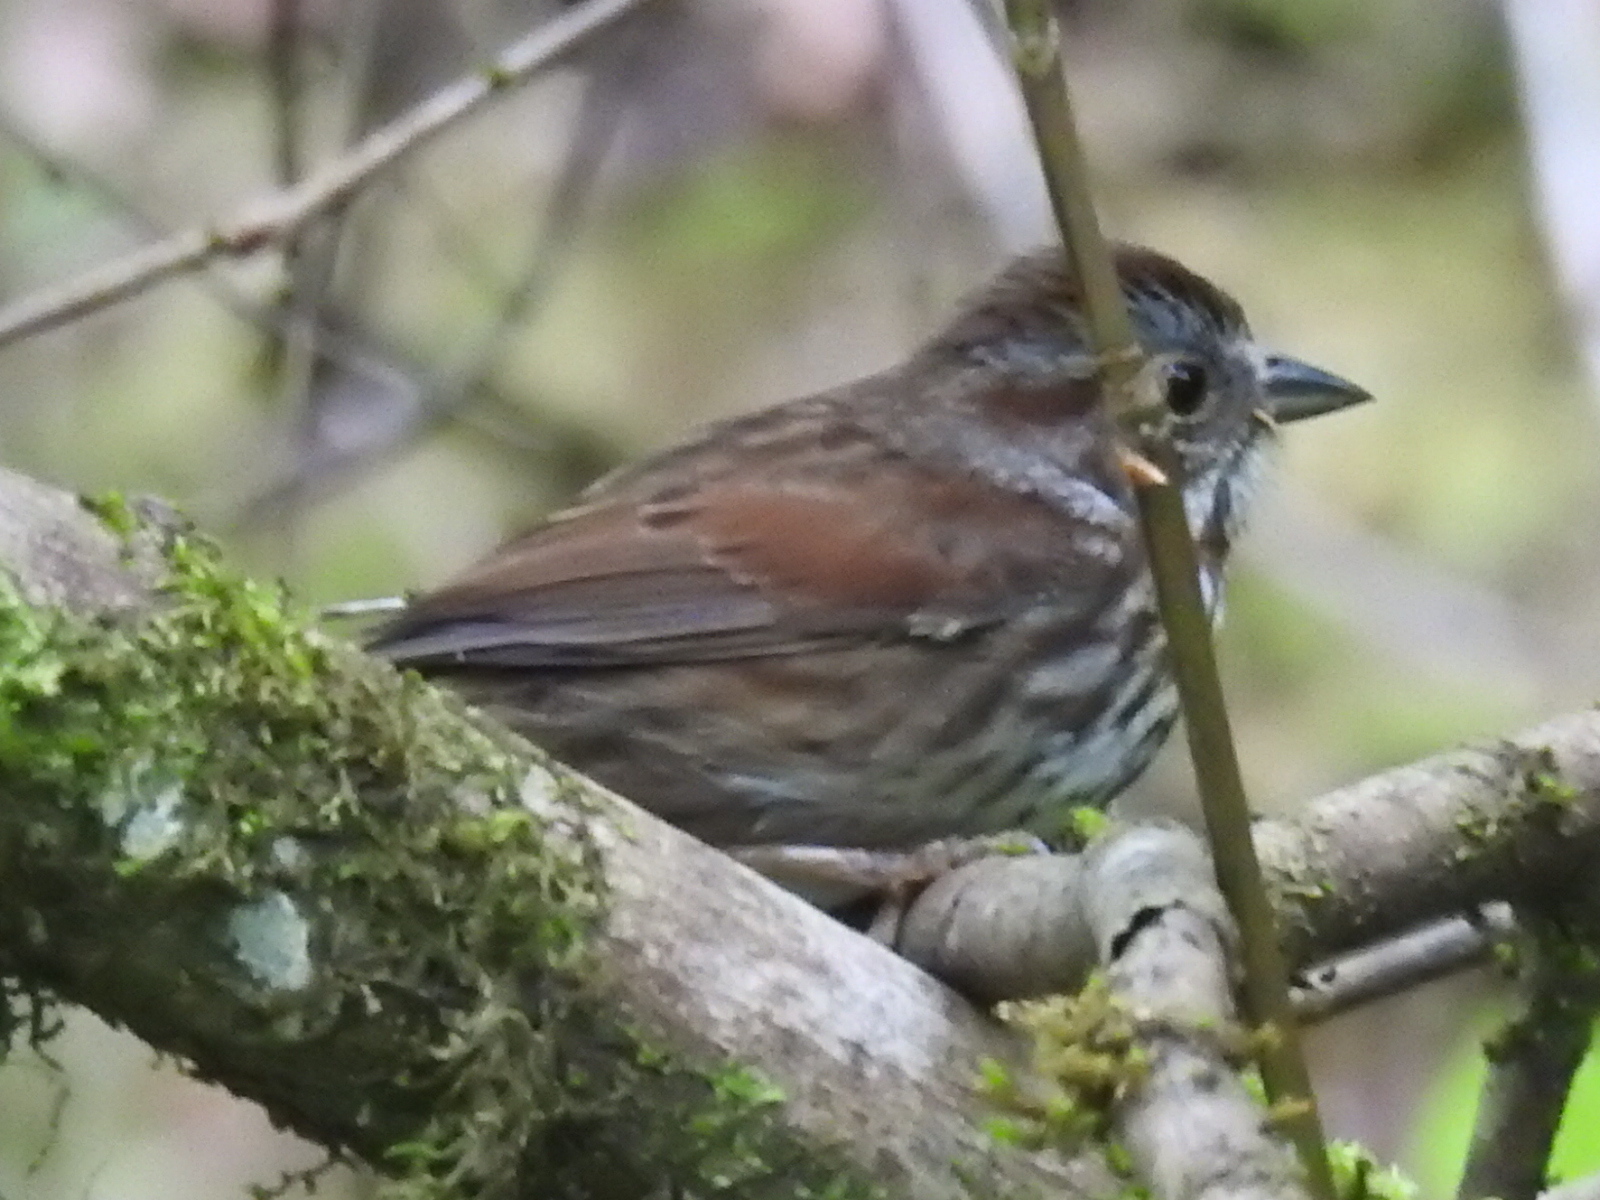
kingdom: Animalia
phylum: Chordata
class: Aves
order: Passeriformes
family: Passerellidae
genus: Melospiza
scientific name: Melospiza melodia
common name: Song sparrow
